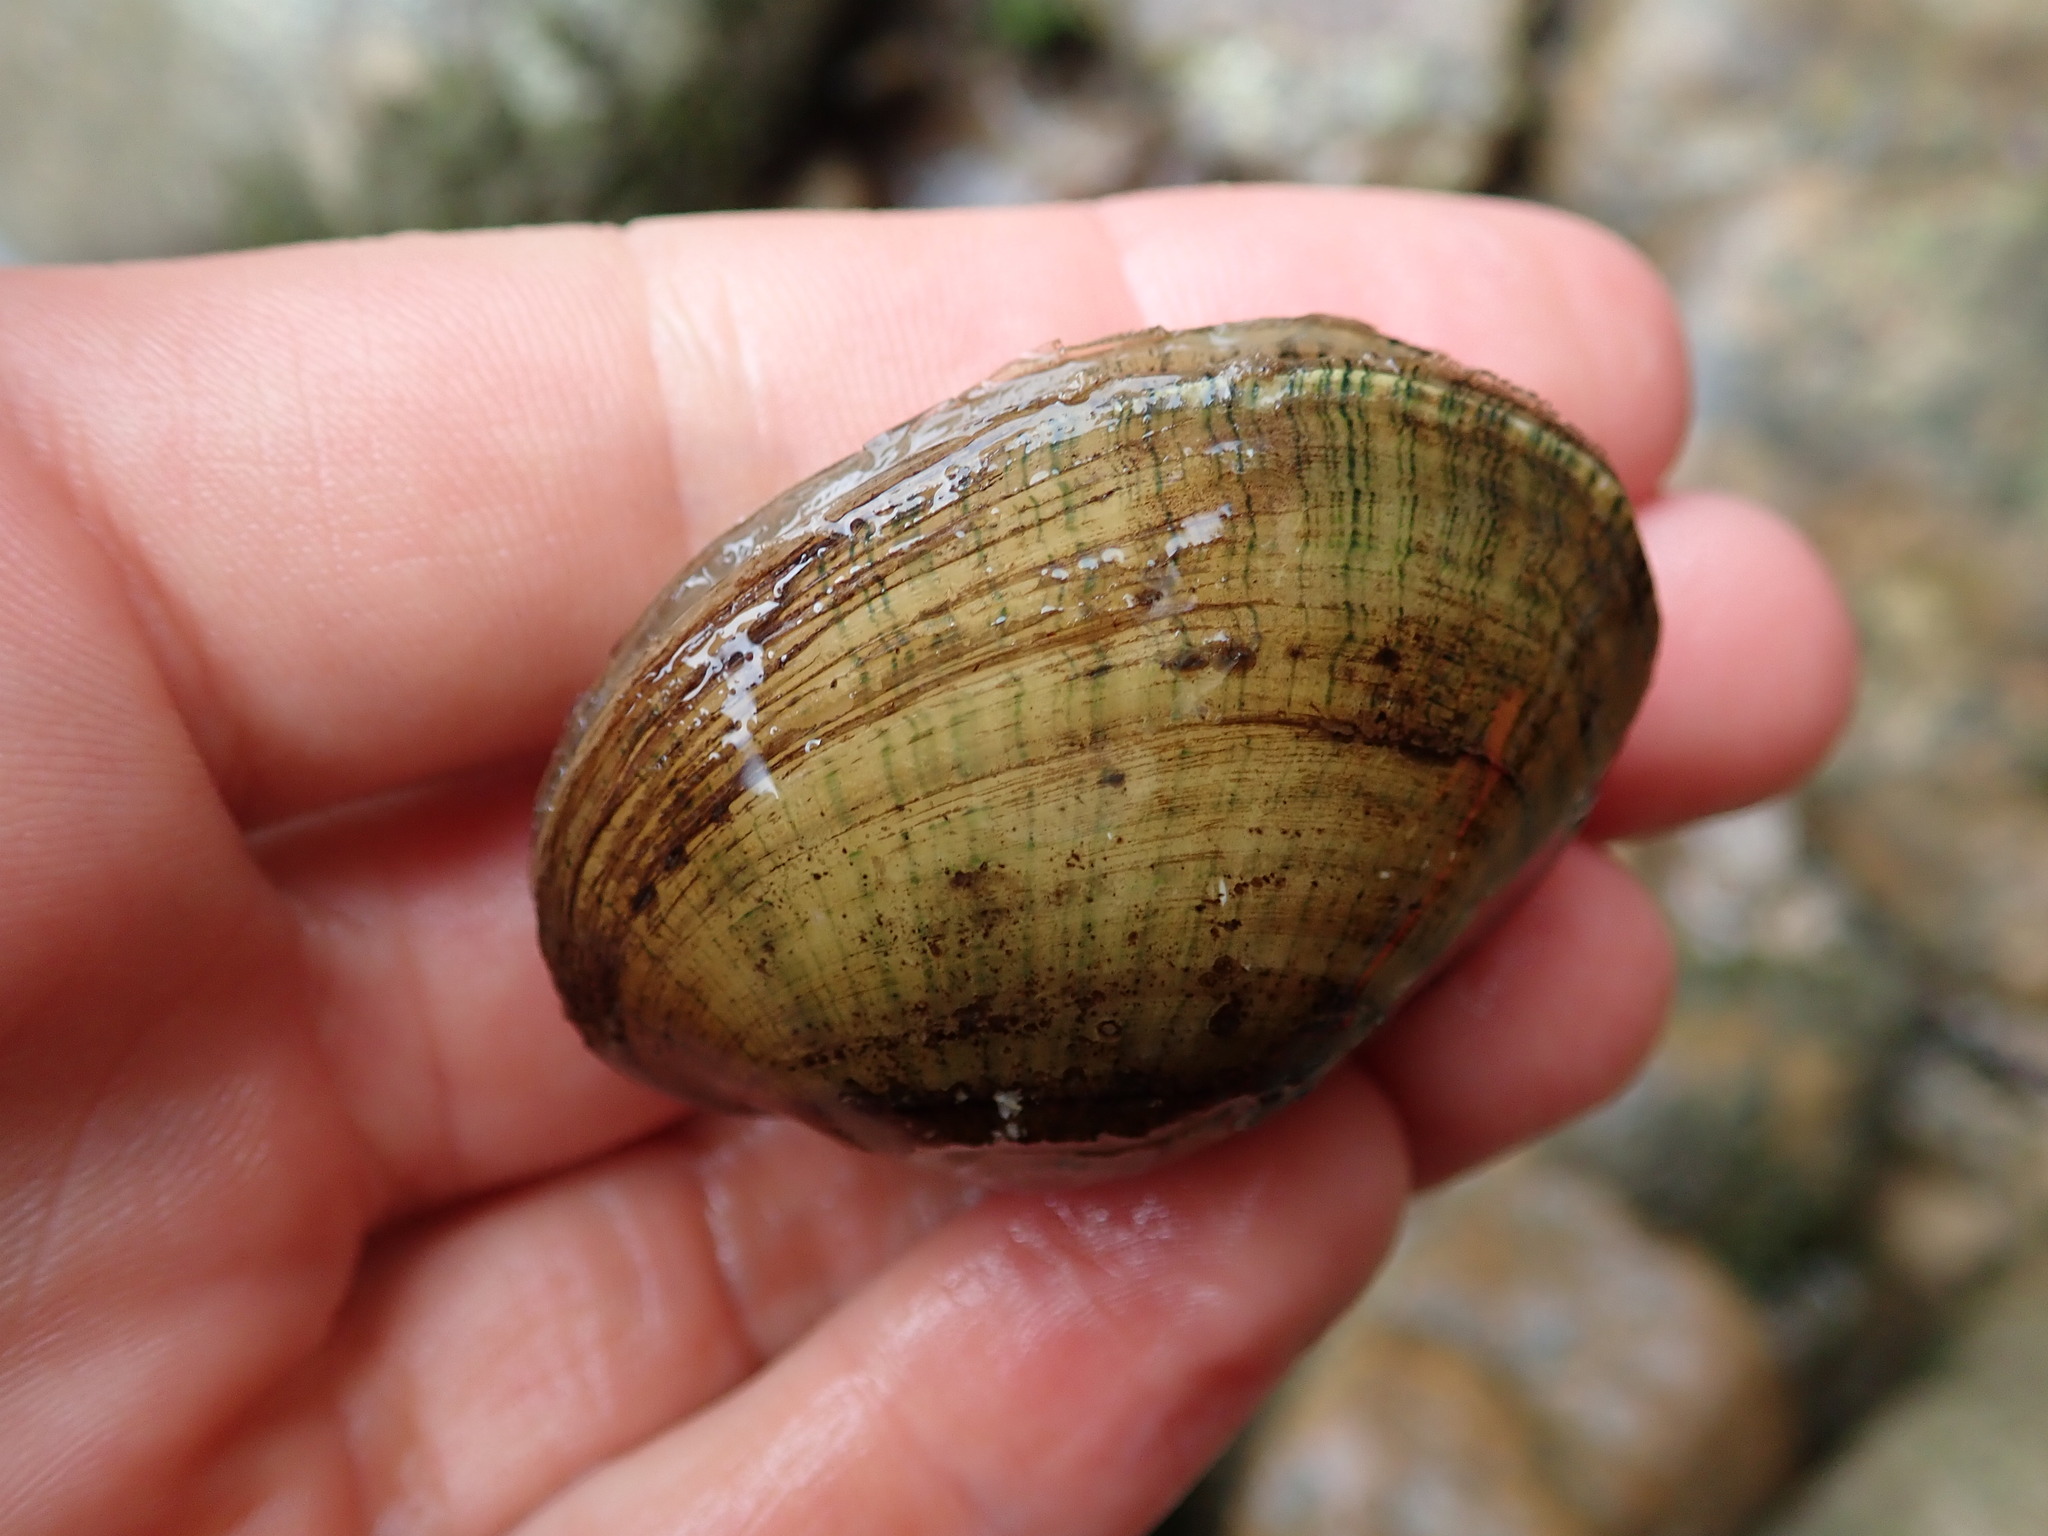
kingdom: Animalia
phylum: Mollusca
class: Bivalvia
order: Unionida
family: Unionidae
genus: Lampsilis
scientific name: Lampsilis fasciola
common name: Wavyrayed lampmussel
